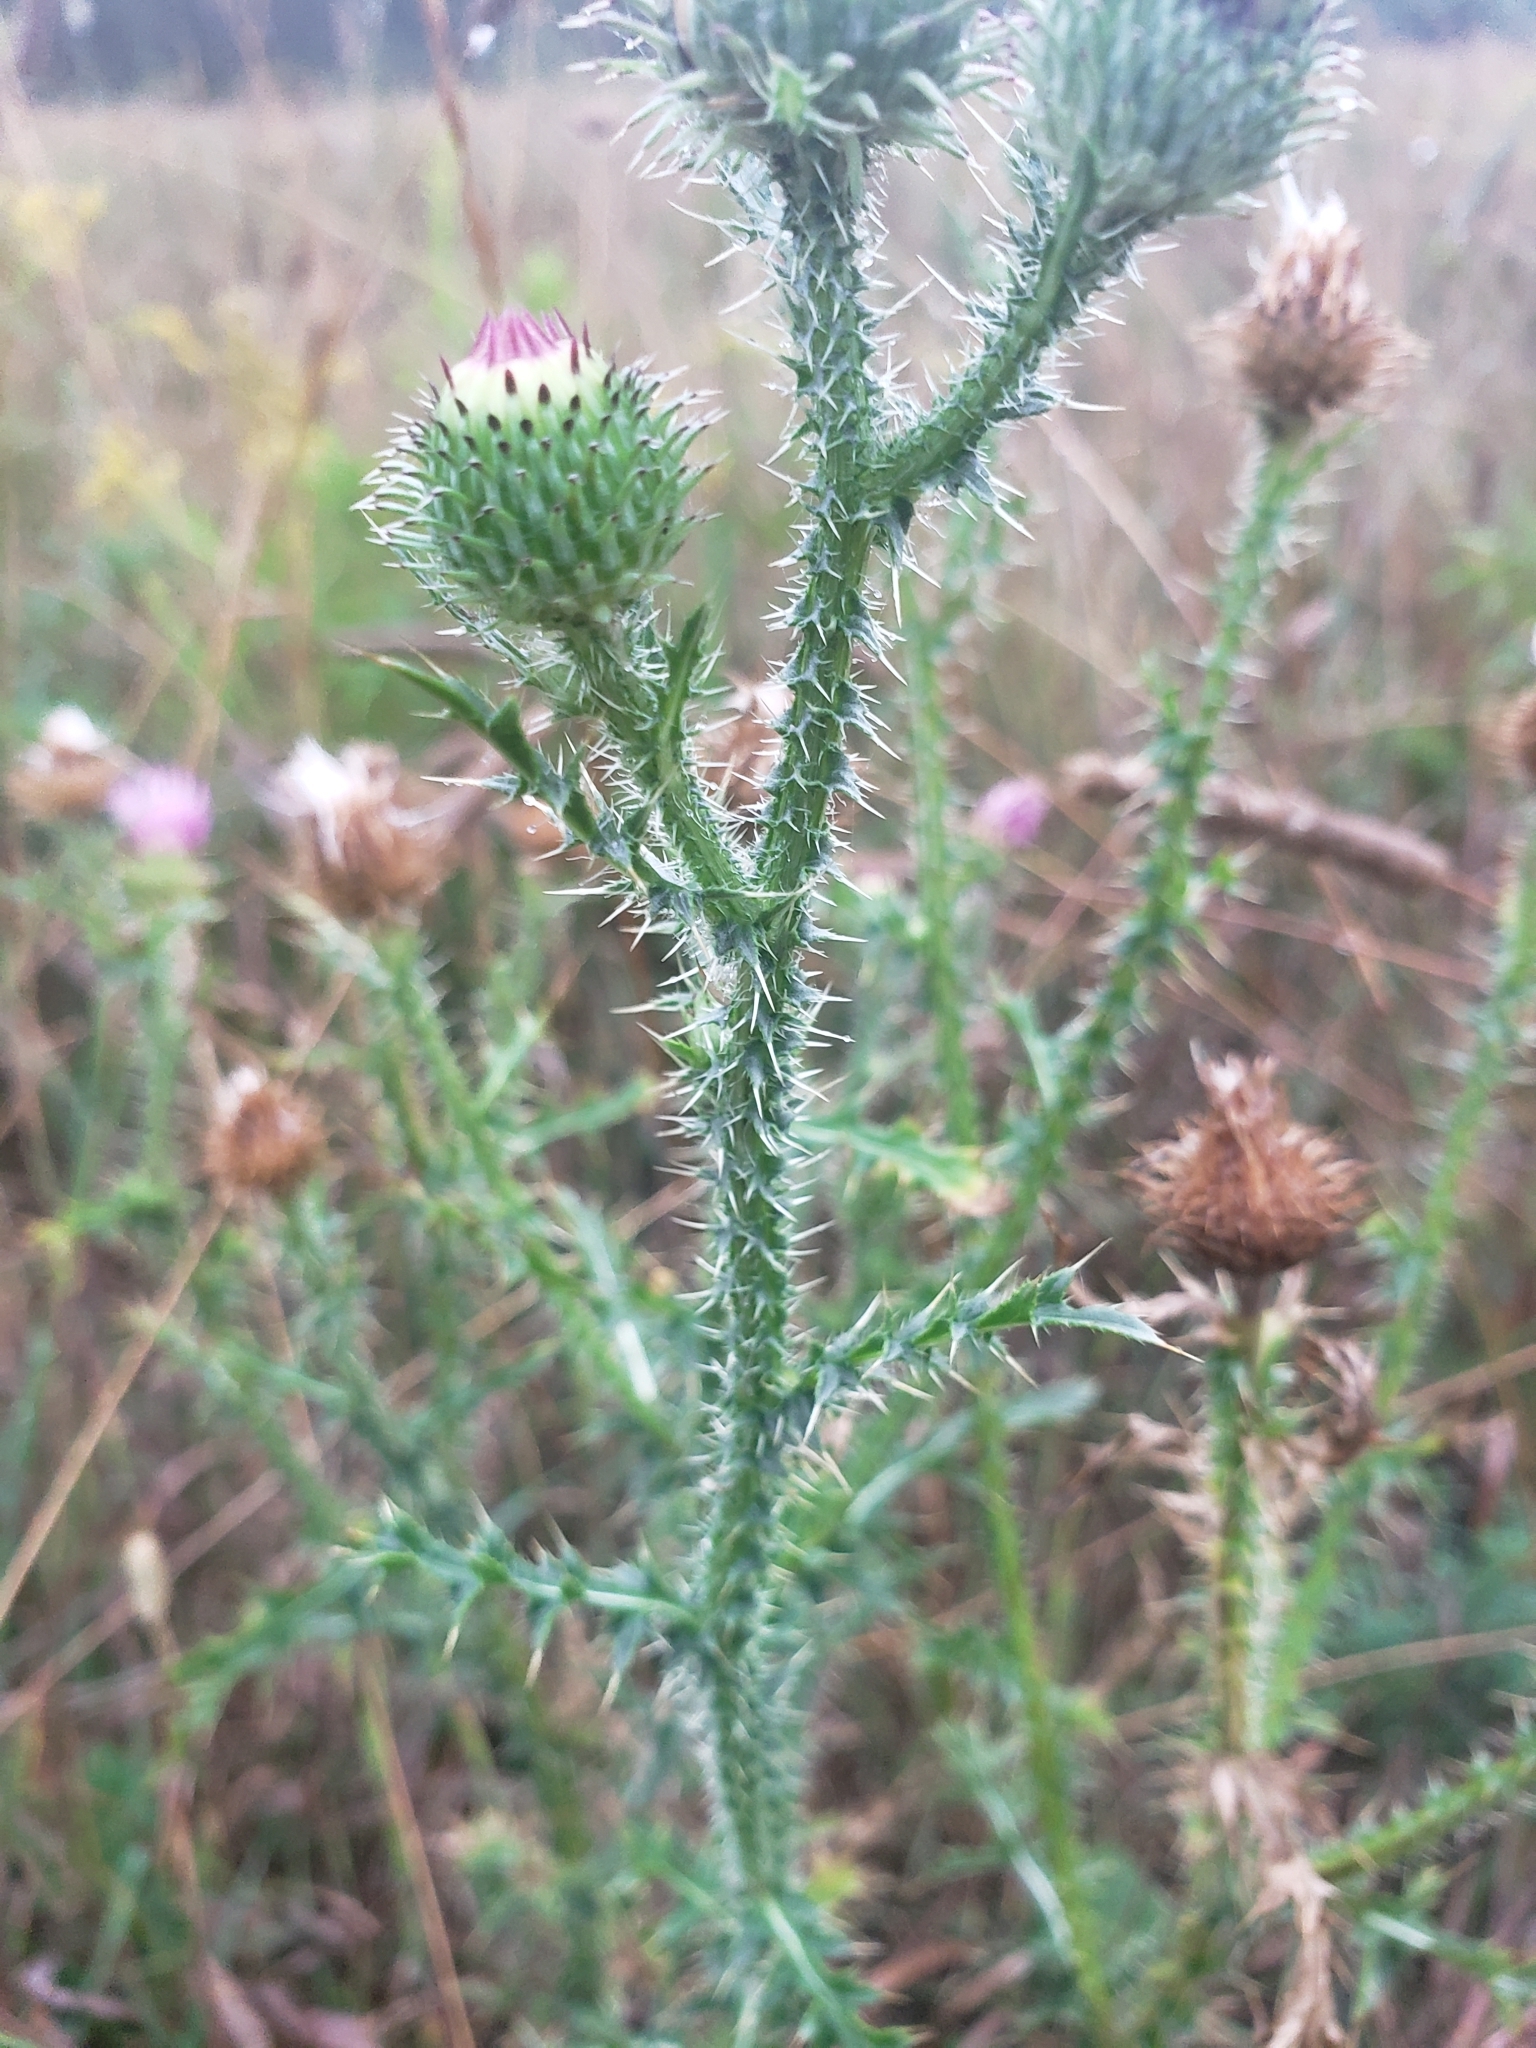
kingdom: Plantae
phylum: Tracheophyta
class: Magnoliopsida
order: Asterales
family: Asteraceae
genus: Carduus
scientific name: Carduus acanthoides
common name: Plumeless thistle
